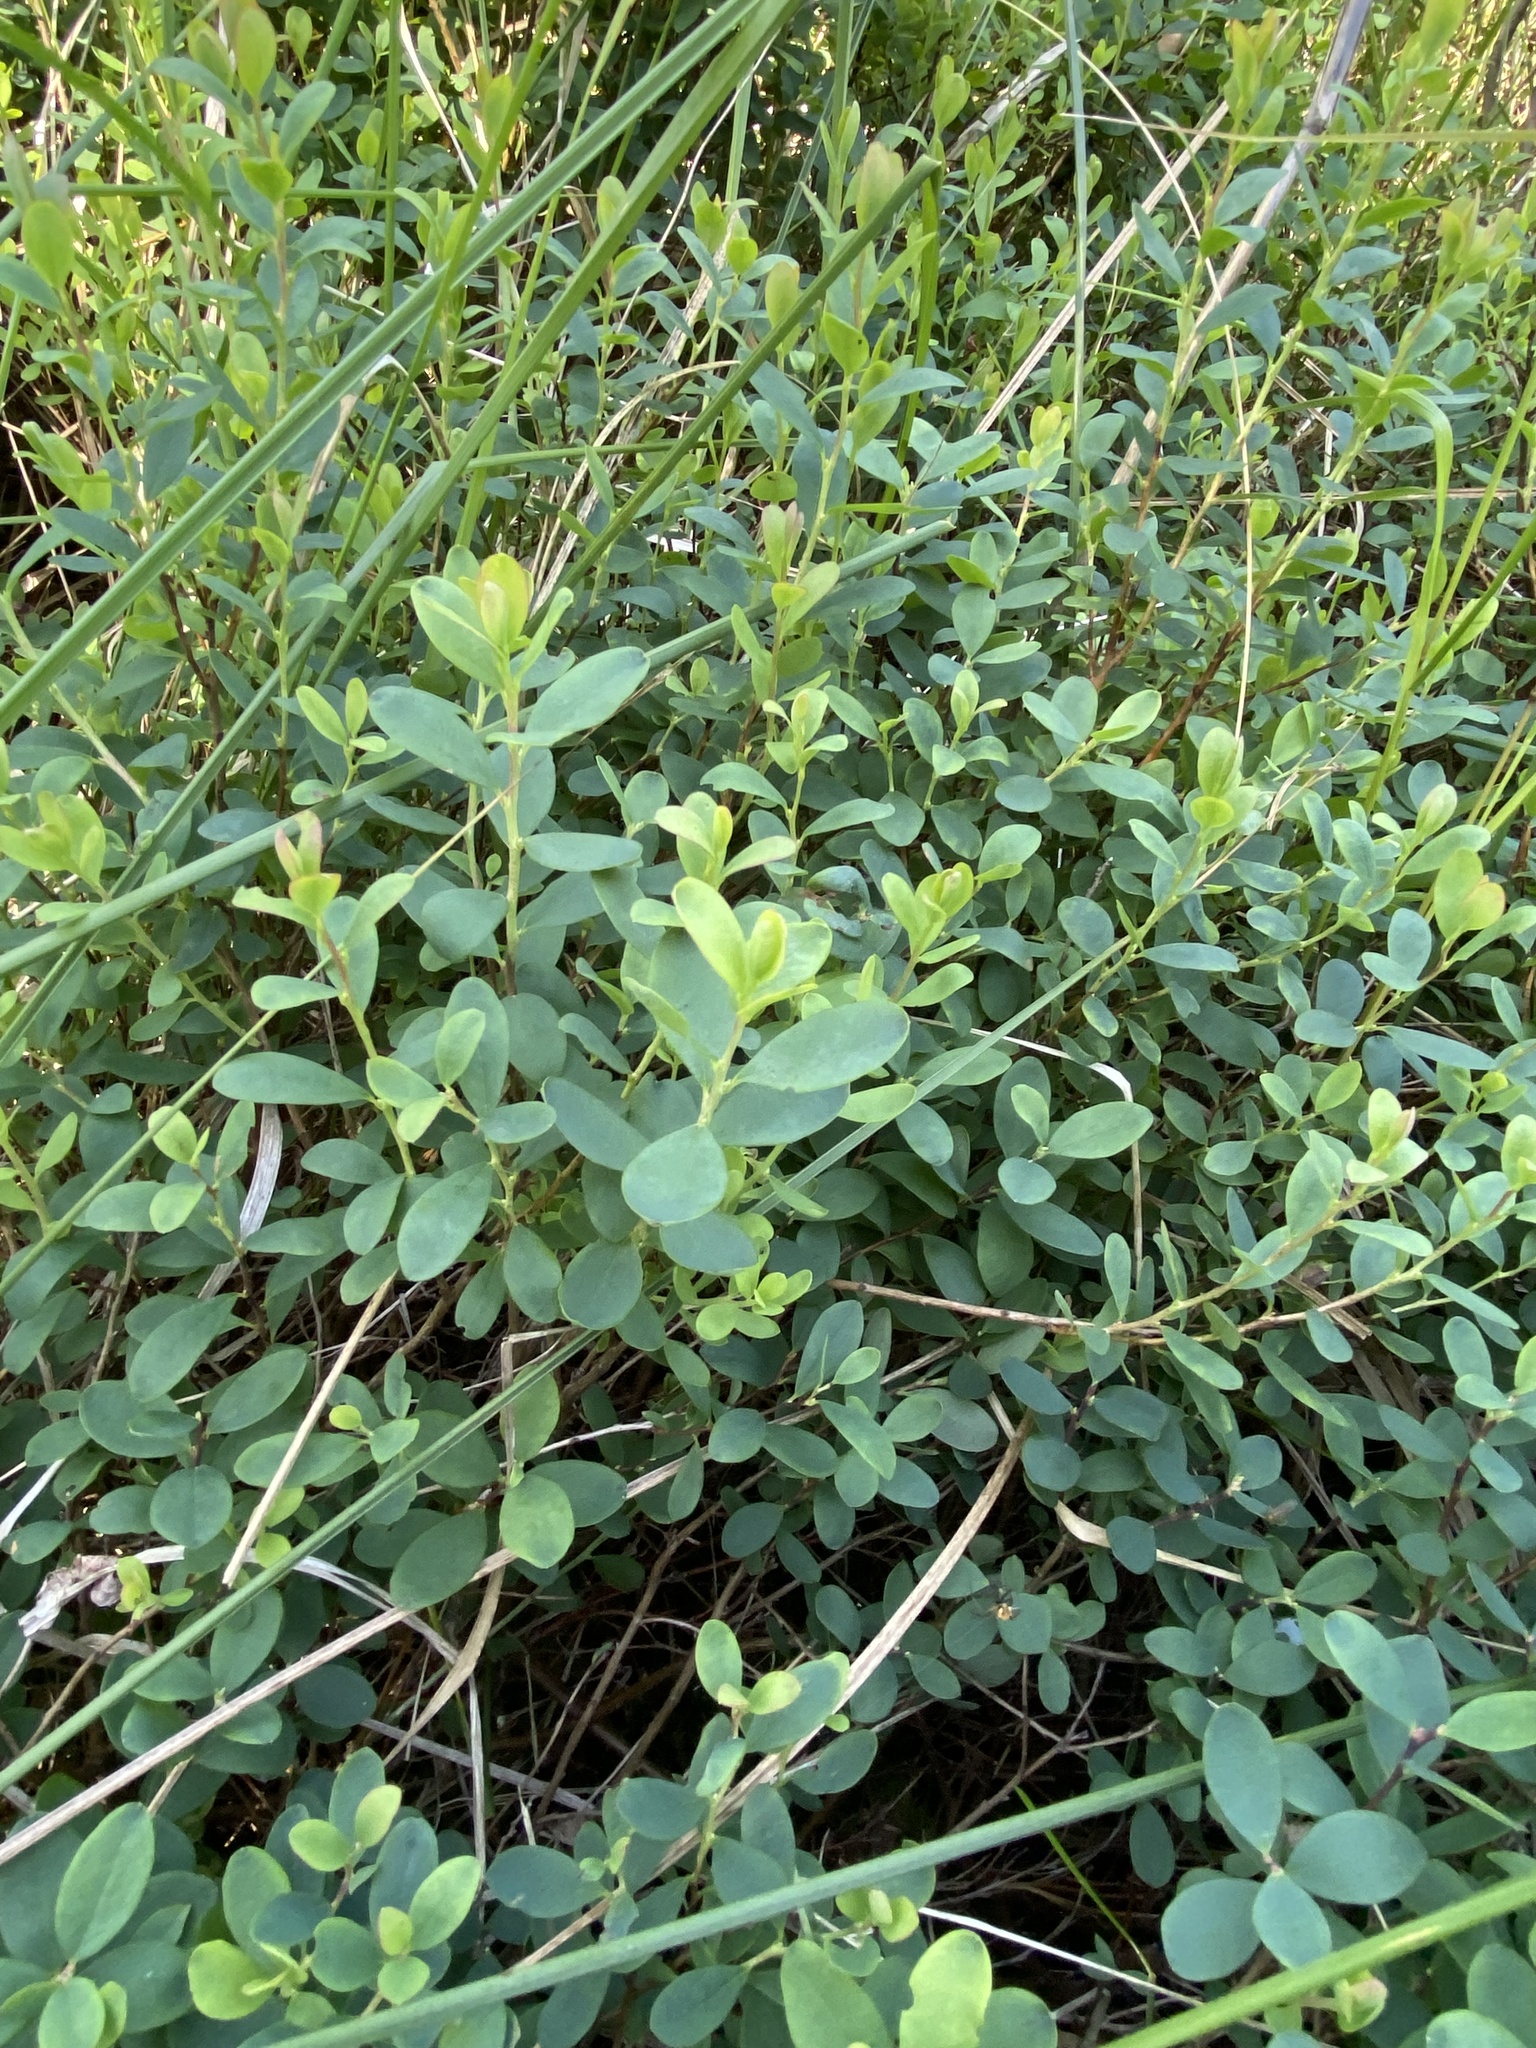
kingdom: Plantae
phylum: Tracheophyta
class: Magnoliopsida
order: Ericales
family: Ericaceae
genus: Vaccinium
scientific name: Vaccinium uliginosum
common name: Bog bilberry
